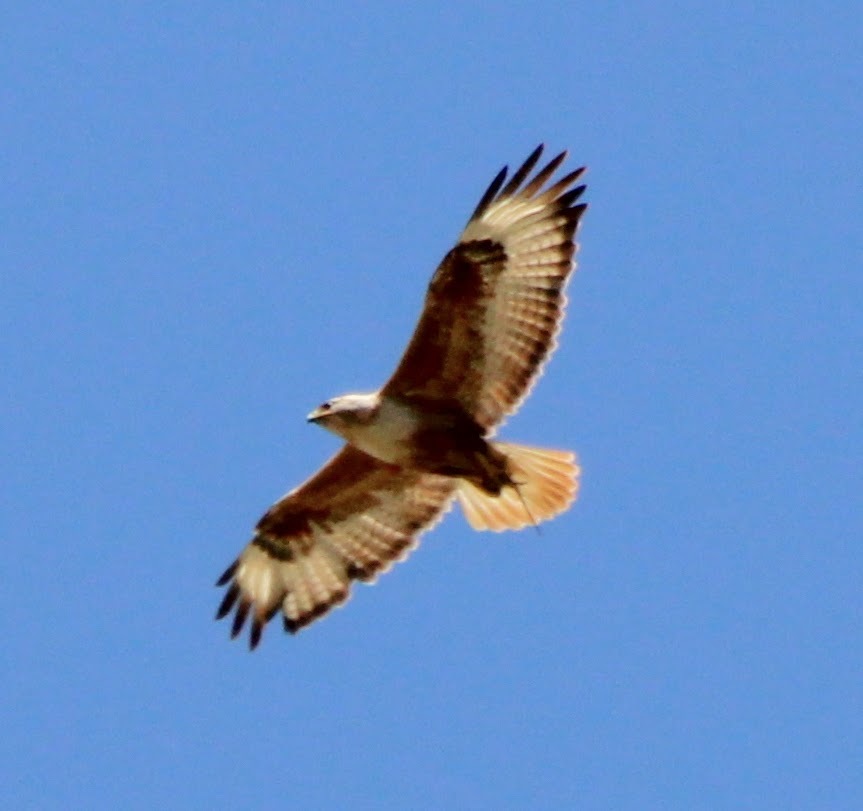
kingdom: Animalia
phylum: Chordata
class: Aves
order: Accipitriformes
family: Accipitridae
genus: Buteo
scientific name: Buteo rufinus
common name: Long-legged buzzard
